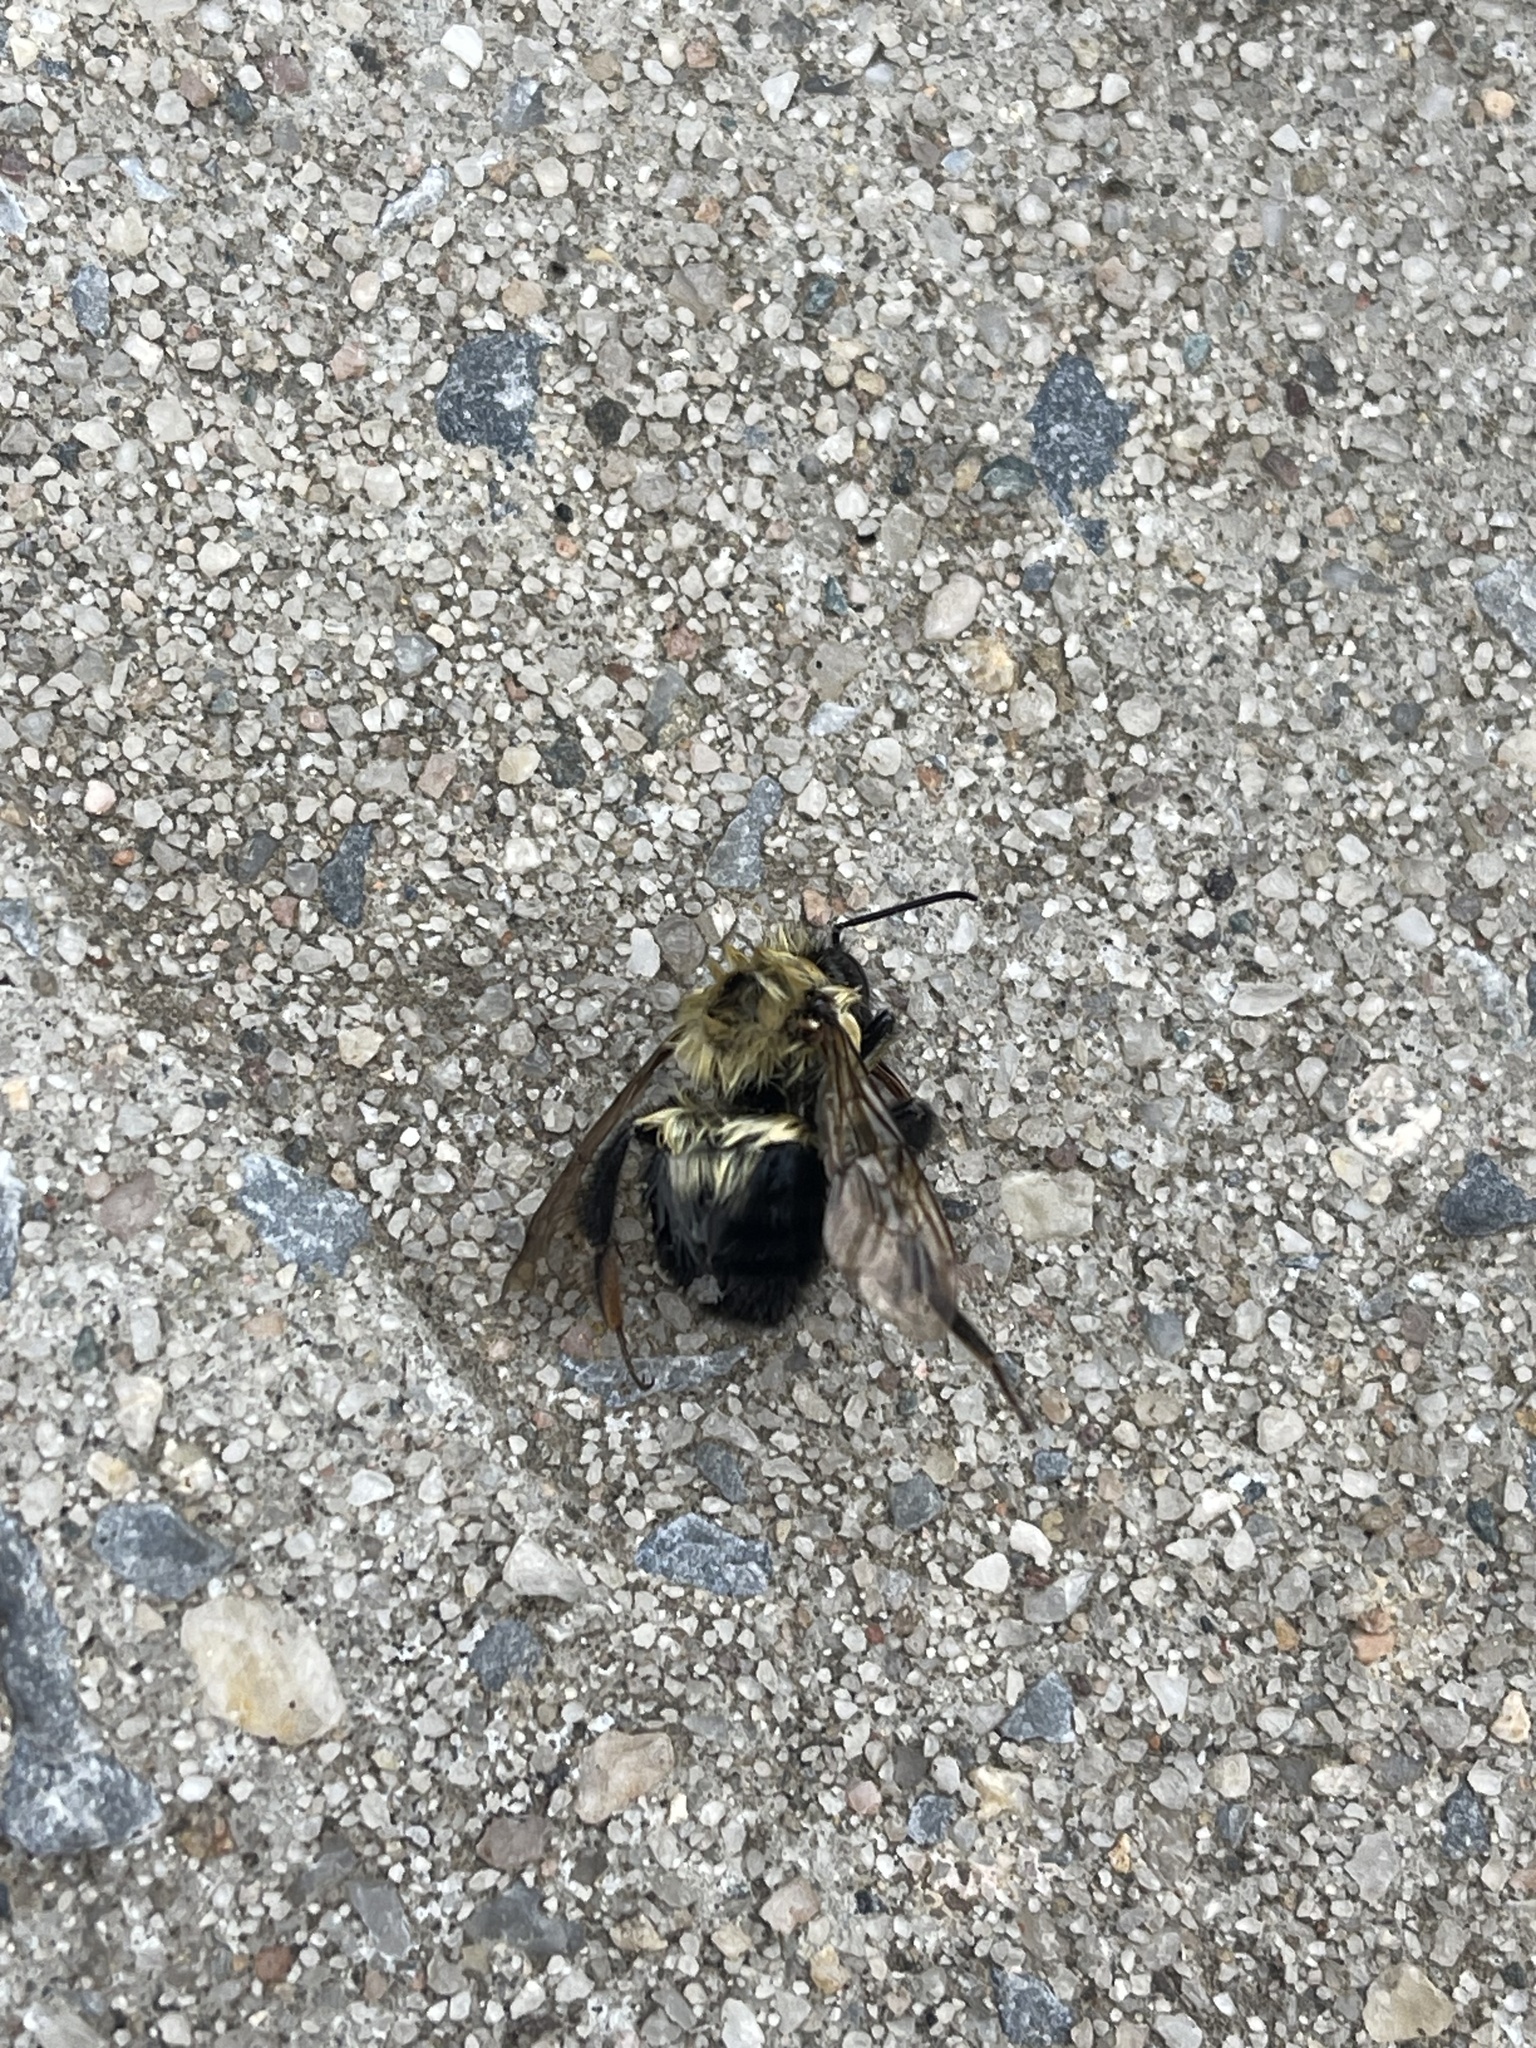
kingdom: Animalia
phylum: Arthropoda
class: Insecta
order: Hymenoptera
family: Apidae
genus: Bombus
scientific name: Bombus bimaculatus
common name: Two-spotted bumble bee
